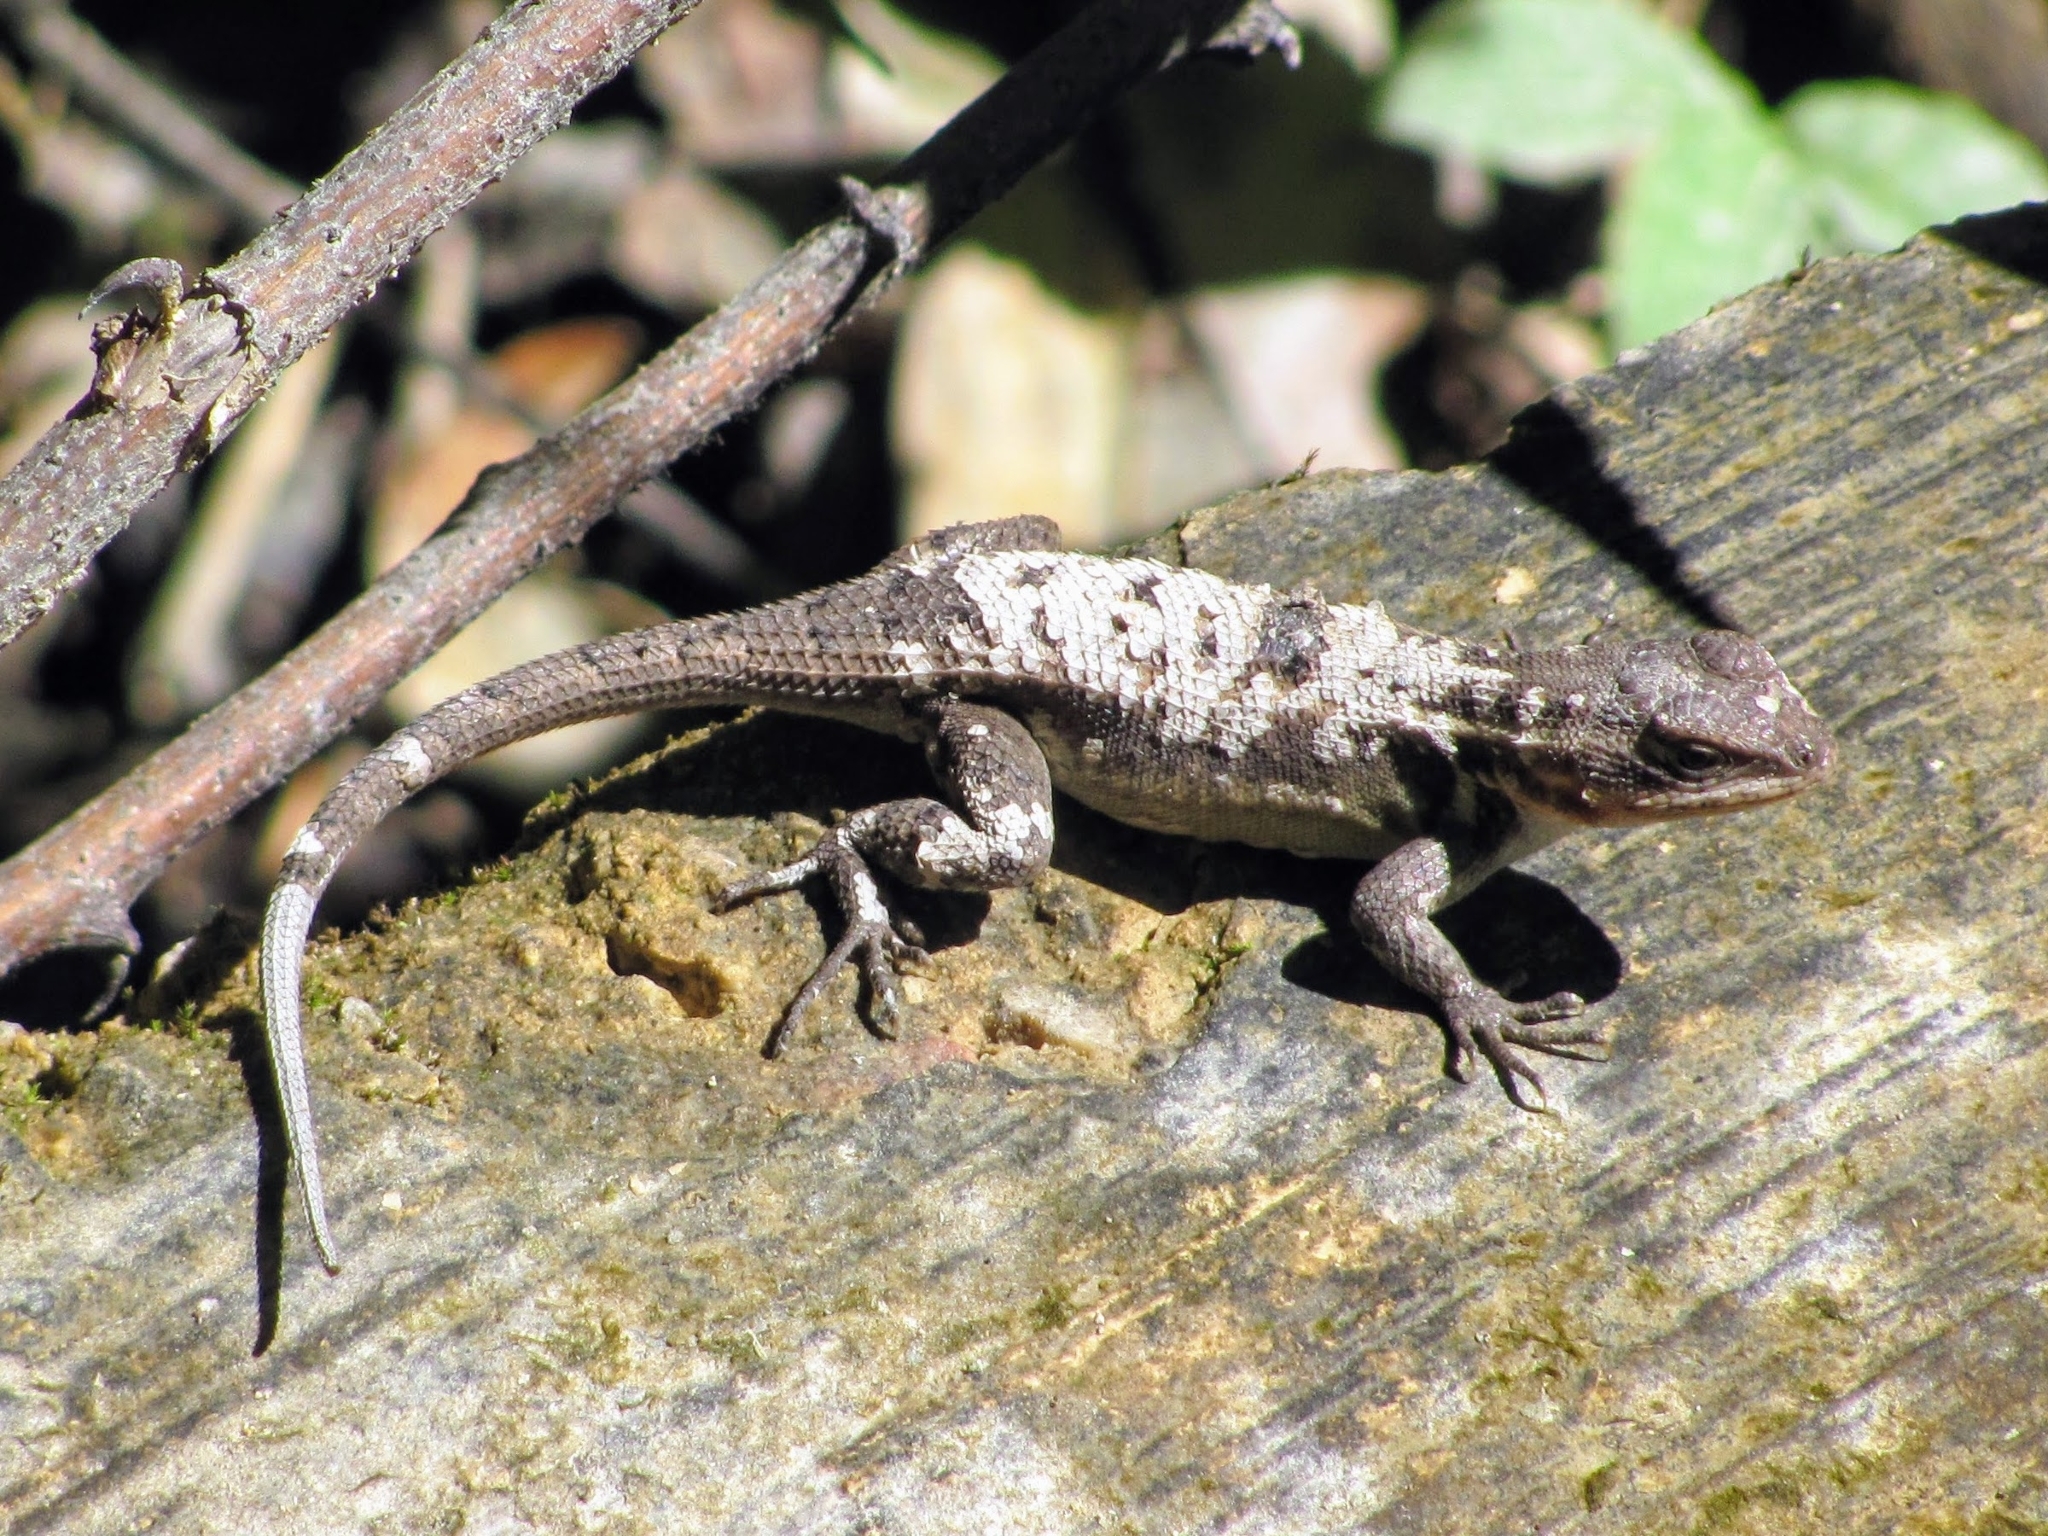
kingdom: Animalia
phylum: Chordata
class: Squamata
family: Phrynosomatidae
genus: Sceloporus
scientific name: Sceloporus variabilis
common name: Rosebelly lizard
